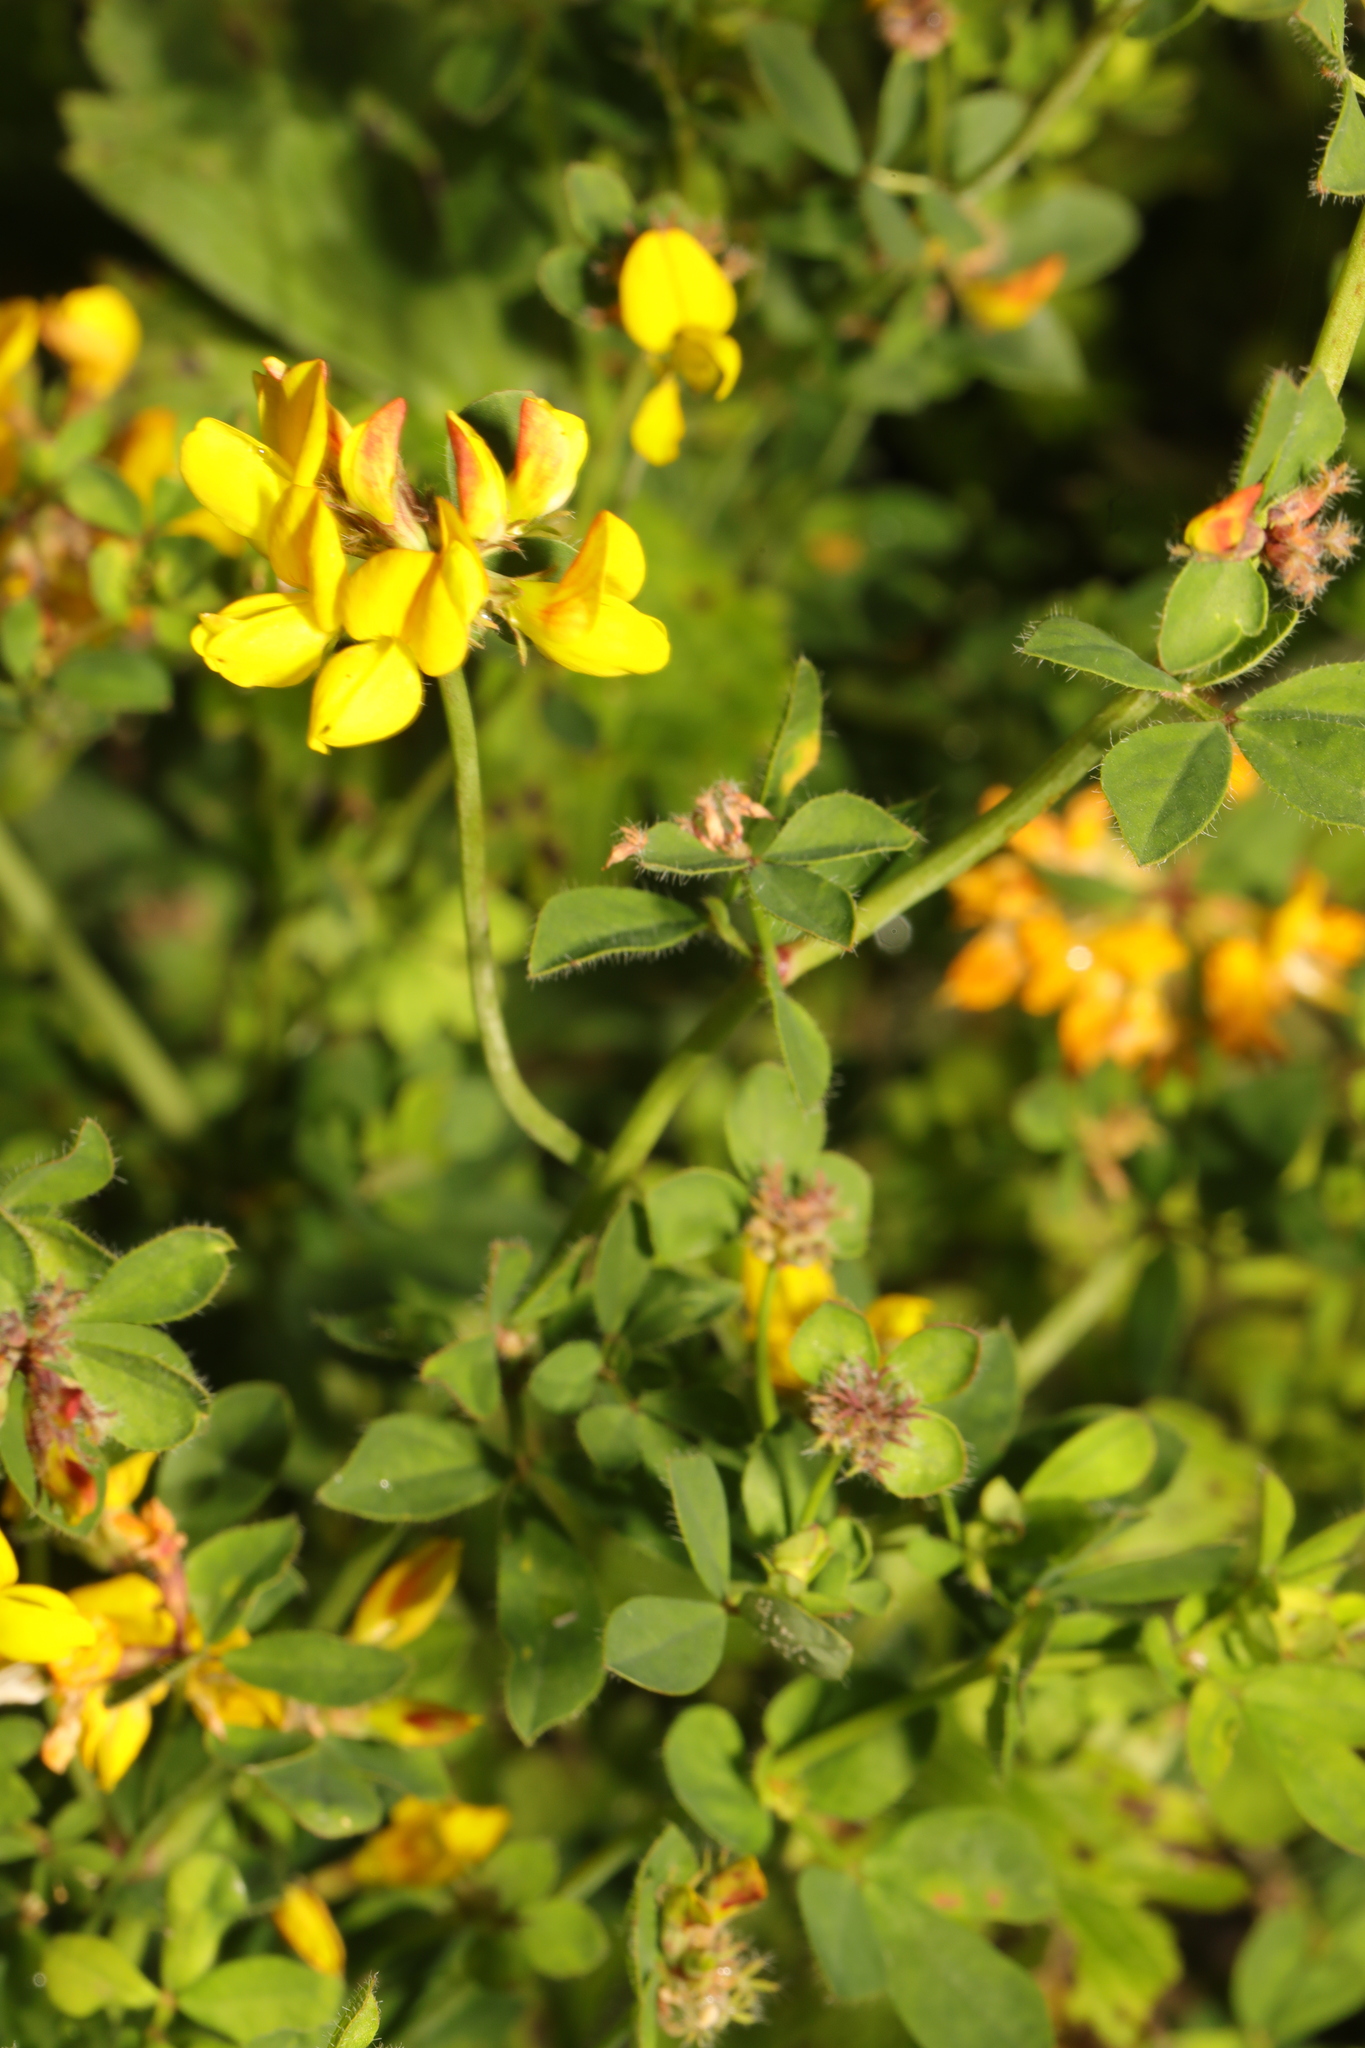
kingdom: Plantae
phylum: Tracheophyta
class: Magnoliopsida
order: Fabales
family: Fabaceae
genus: Lotus
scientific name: Lotus pedunculatus
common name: Greater birdsfoot-trefoil
